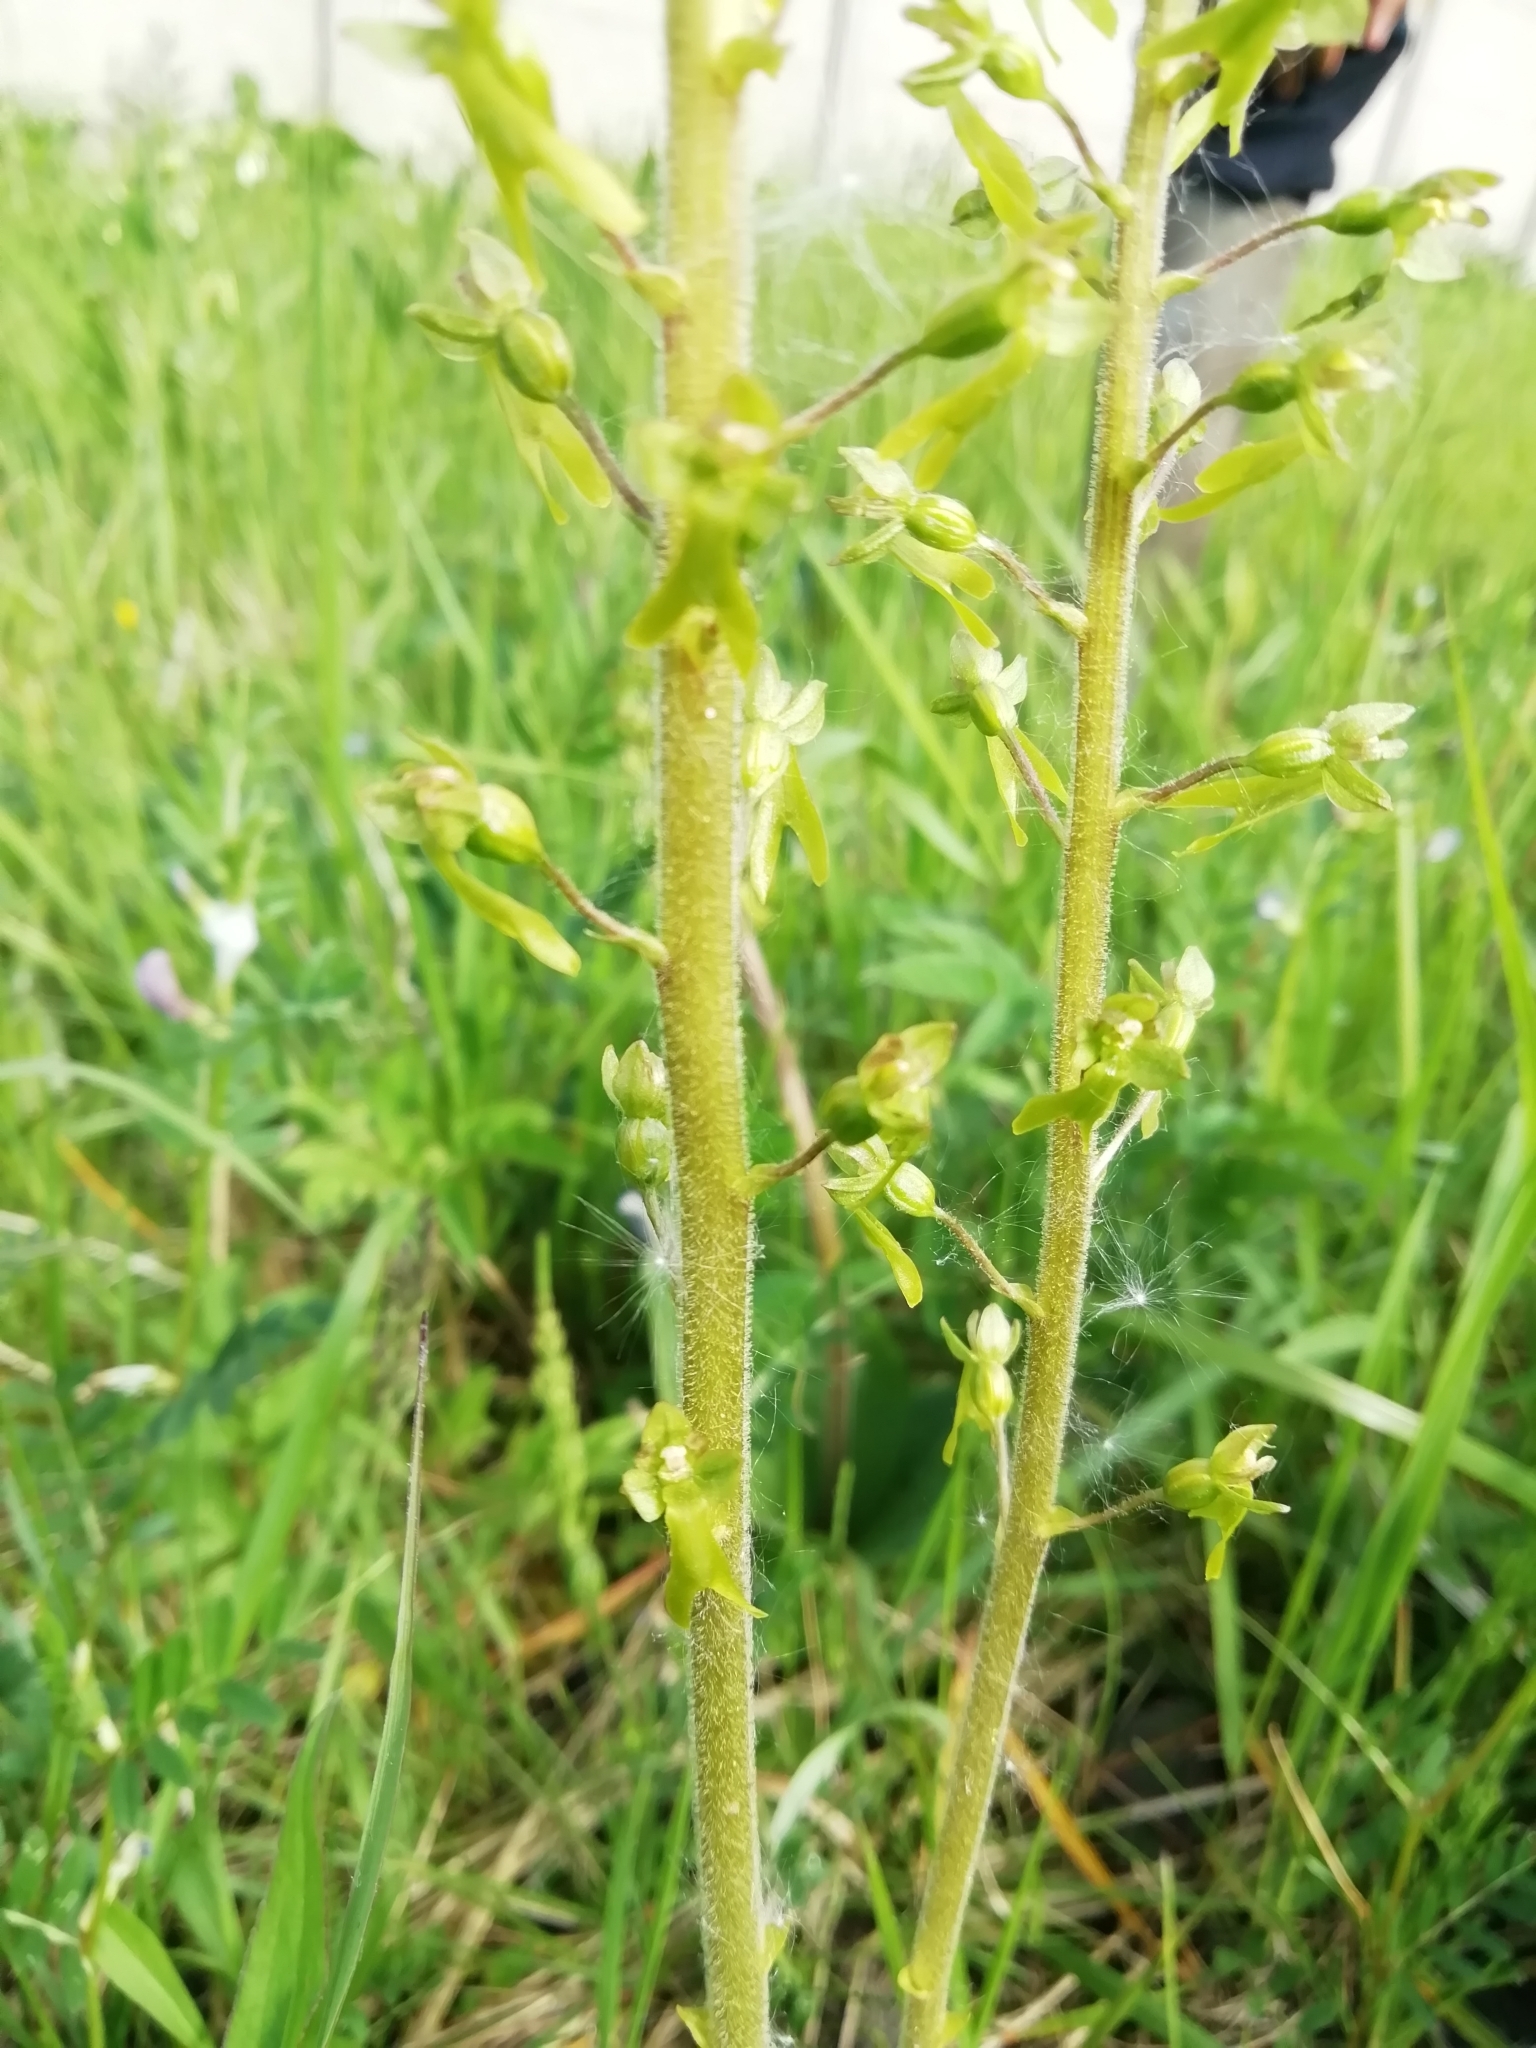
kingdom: Plantae
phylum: Tracheophyta
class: Liliopsida
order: Asparagales
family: Orchidaceae
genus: Neottia
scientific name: Neottia ovata
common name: Common twayblade
